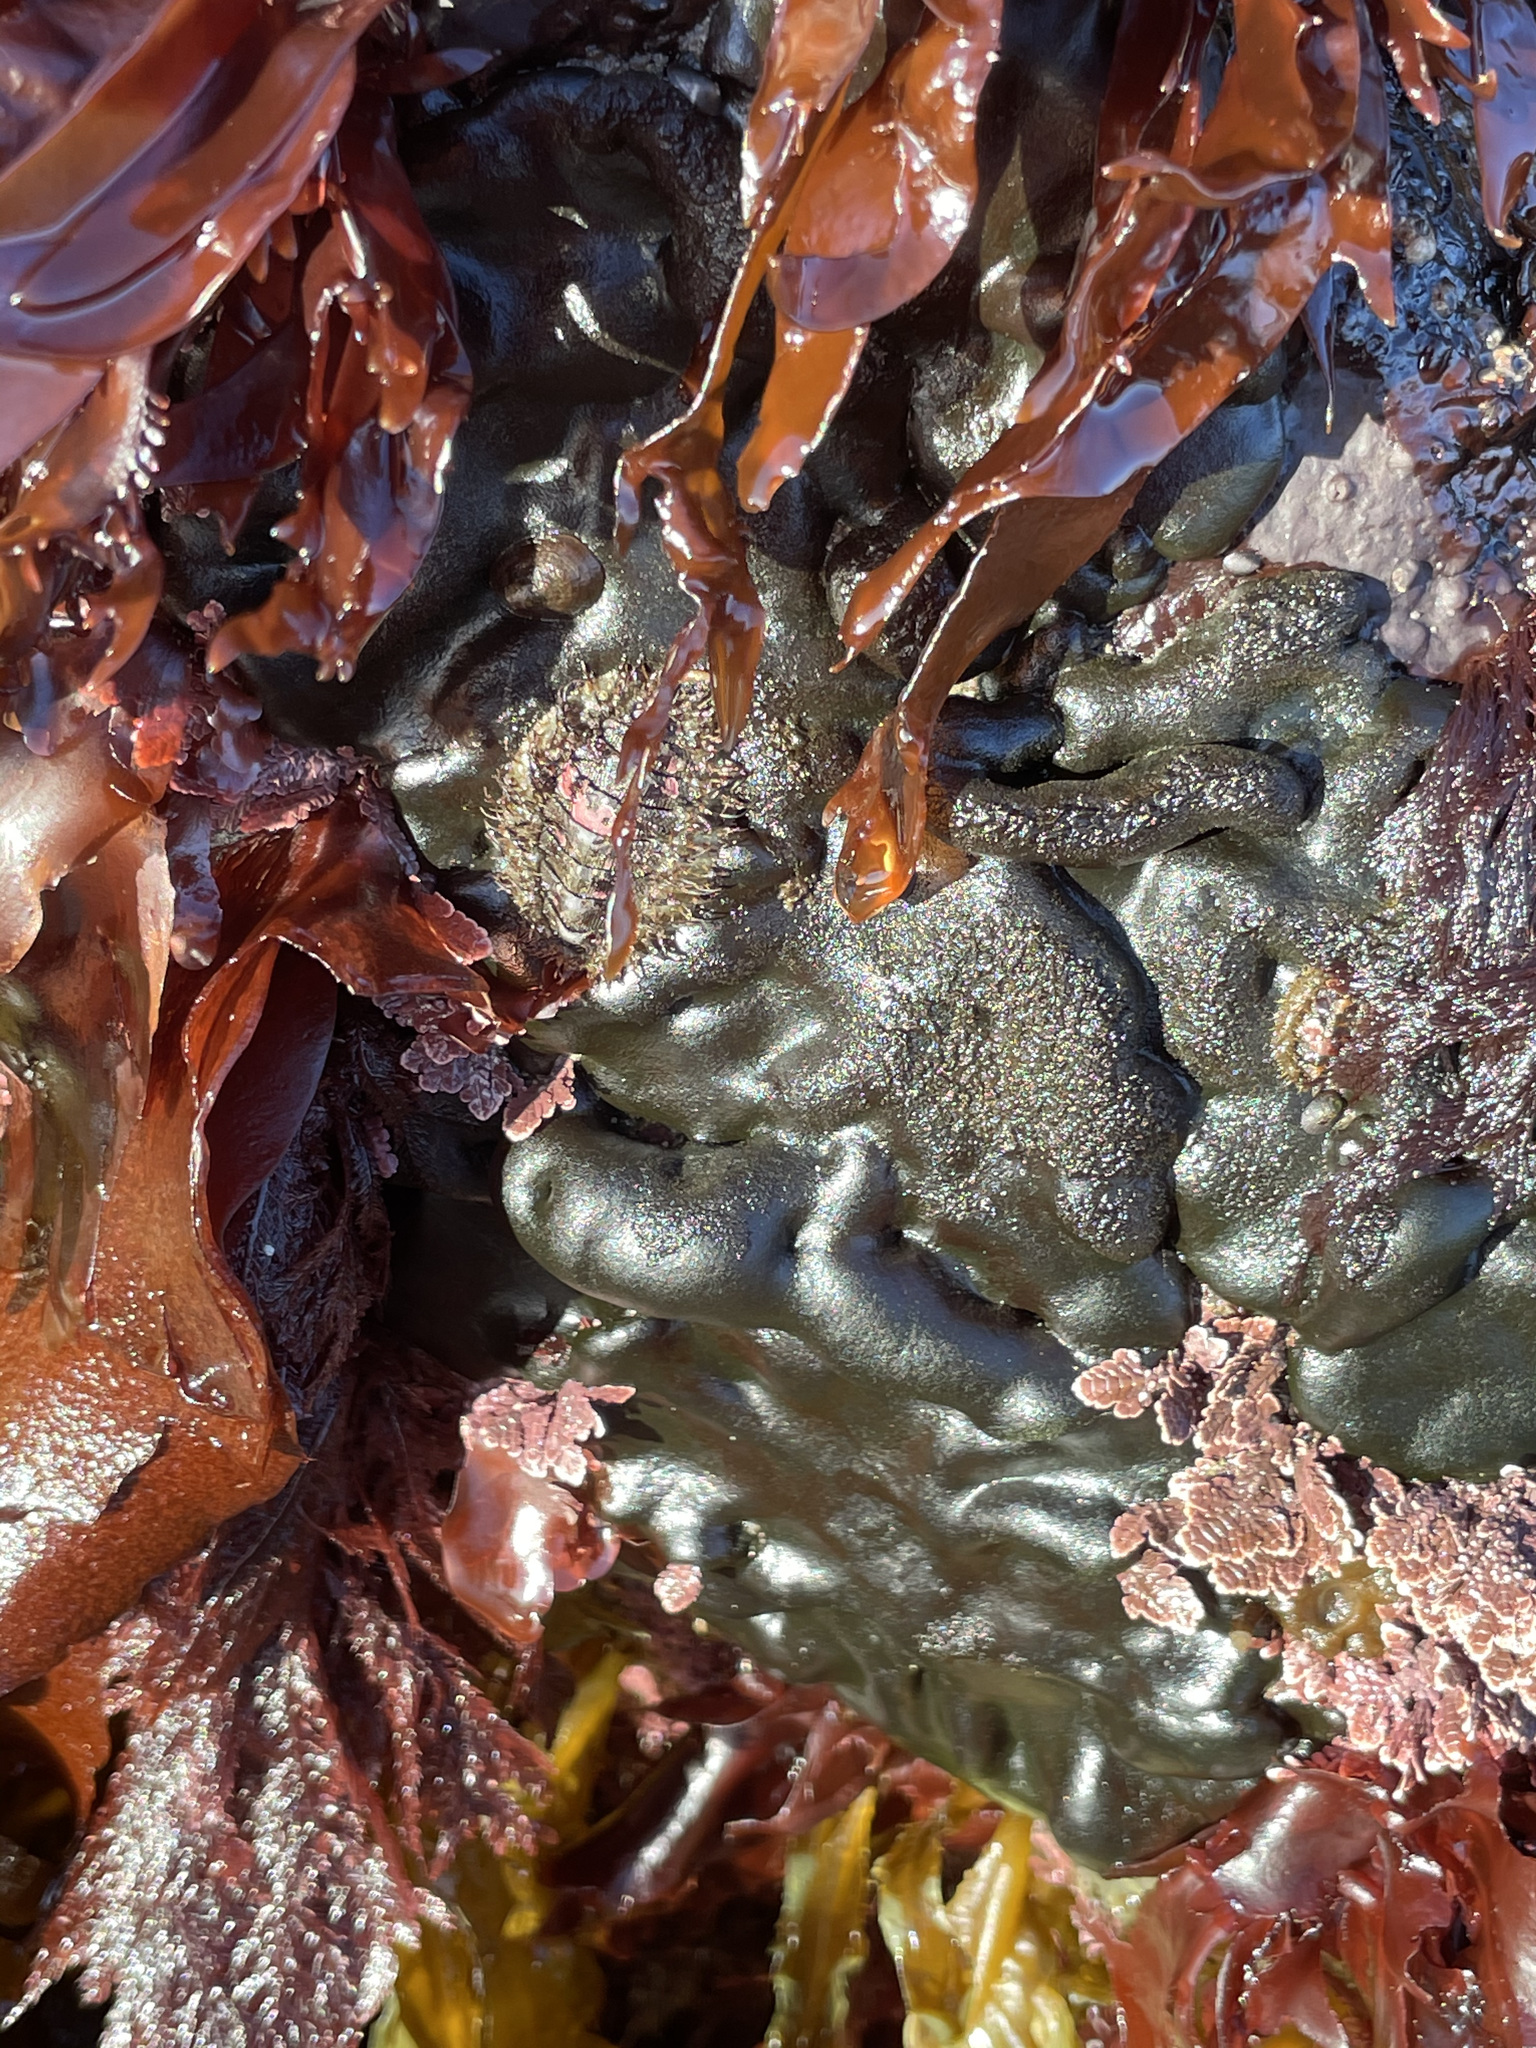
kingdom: Plantae
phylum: Chlorophyta
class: Ulvophyceae
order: Bryopsidales
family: Codiaceae
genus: Codium
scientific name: Codium setchellii
